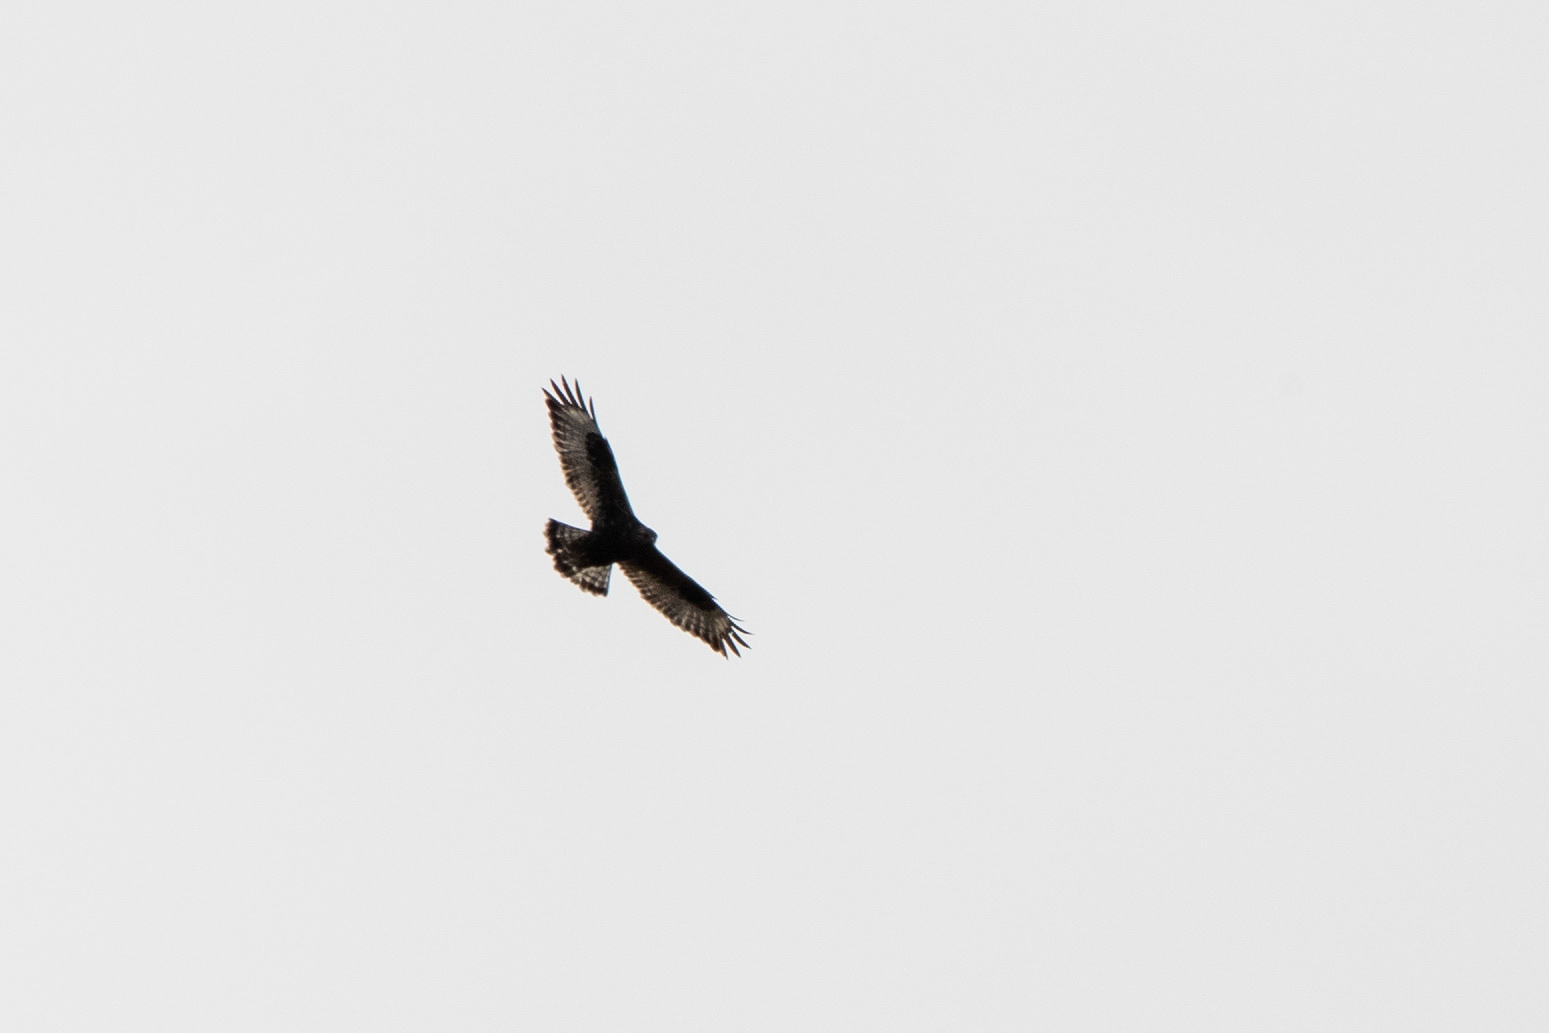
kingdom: Animalia
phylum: Chordata
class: Aves
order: Accipitriformes
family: Accipitridae
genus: Buteo
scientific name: Buteo lagopus
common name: Rough-legged buzzard
